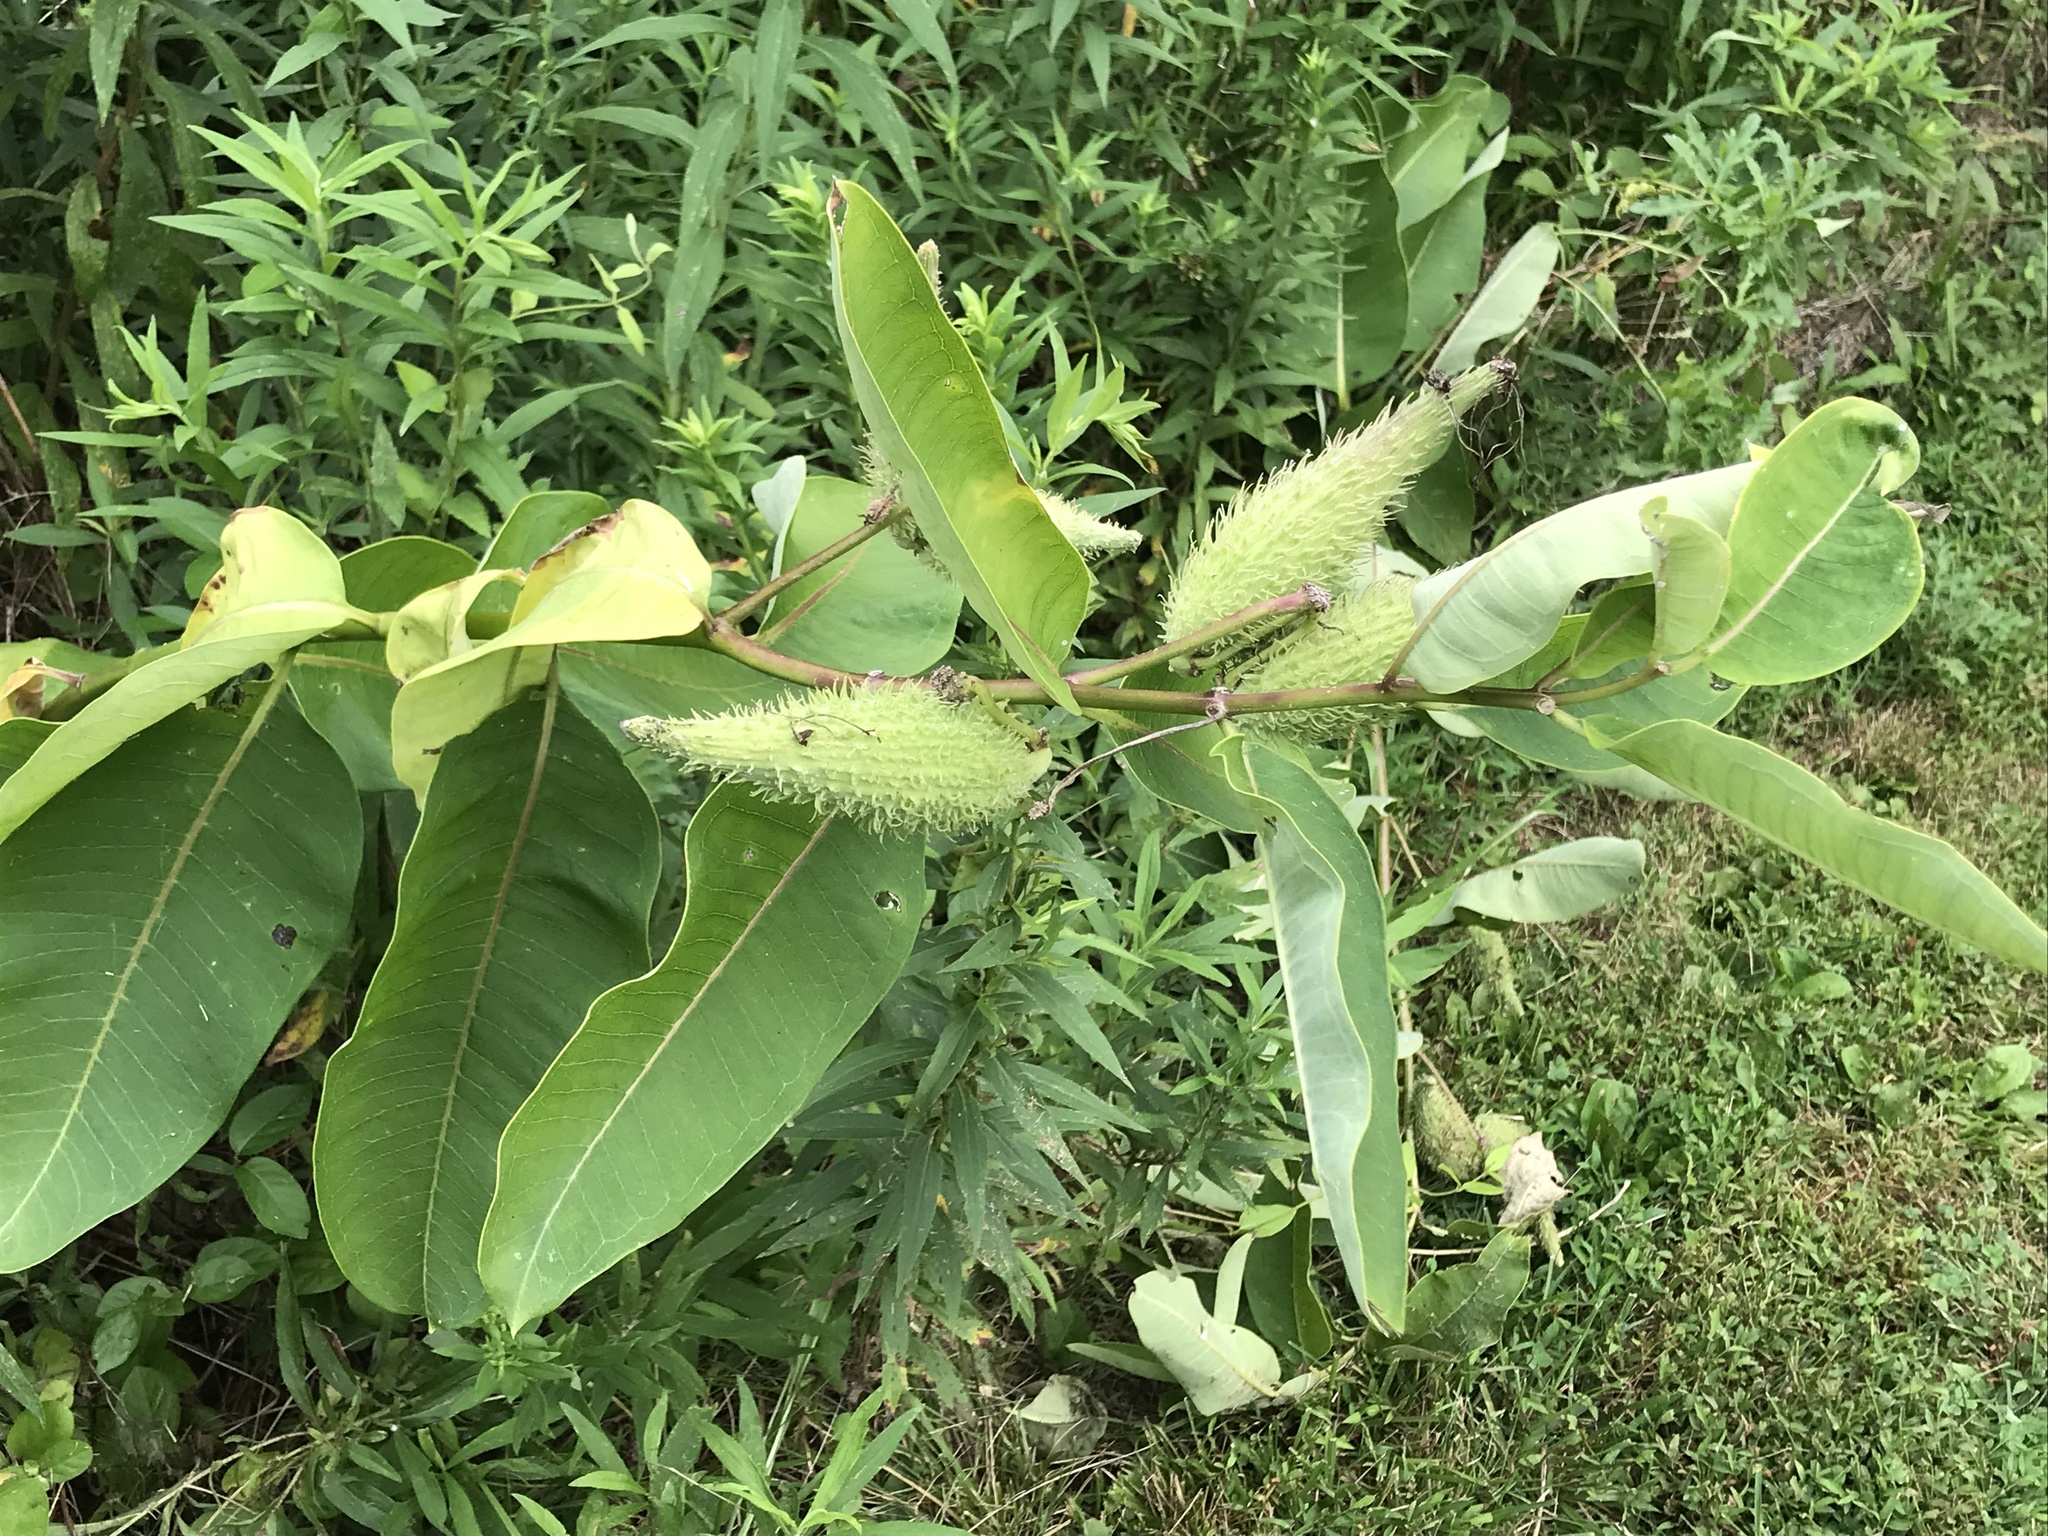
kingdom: Plantae
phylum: Tracheophyta
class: Magnoliopsida
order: Gentianales
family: Apocynaceae
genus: Asclepias
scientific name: Asclepias syriaca
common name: Common milkweed
